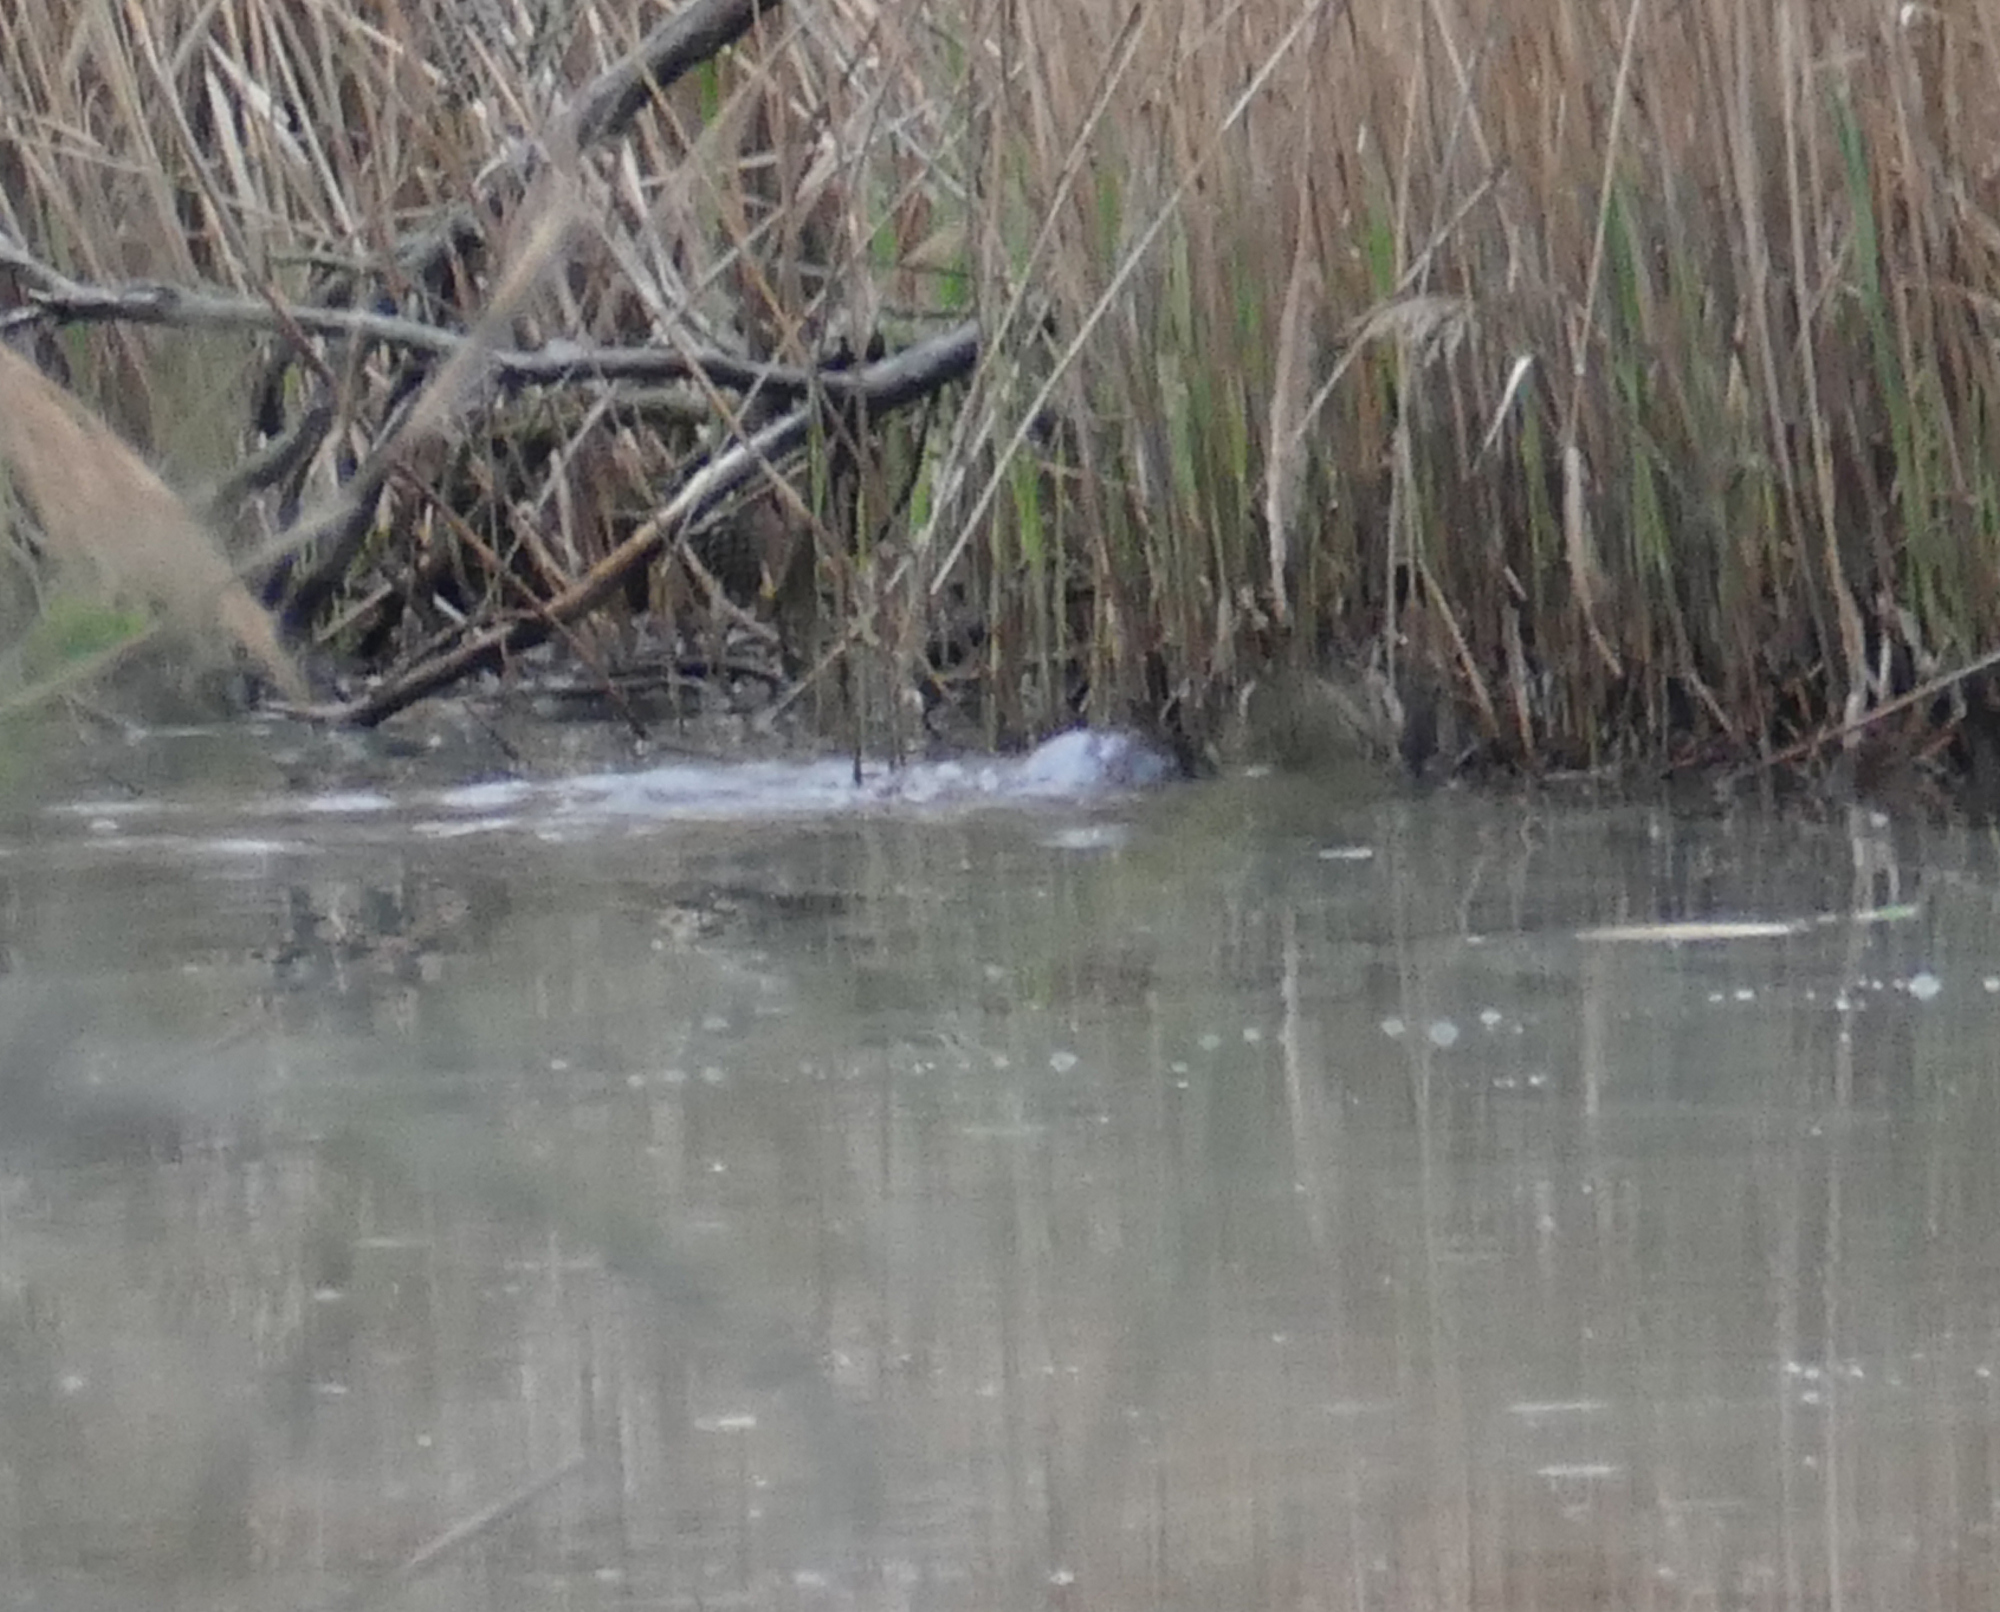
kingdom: Animalia
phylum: Chordata
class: Mammalia
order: Carnivora
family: Mustelidae
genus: Lontra
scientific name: Lontra canadensis
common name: North american river otter
